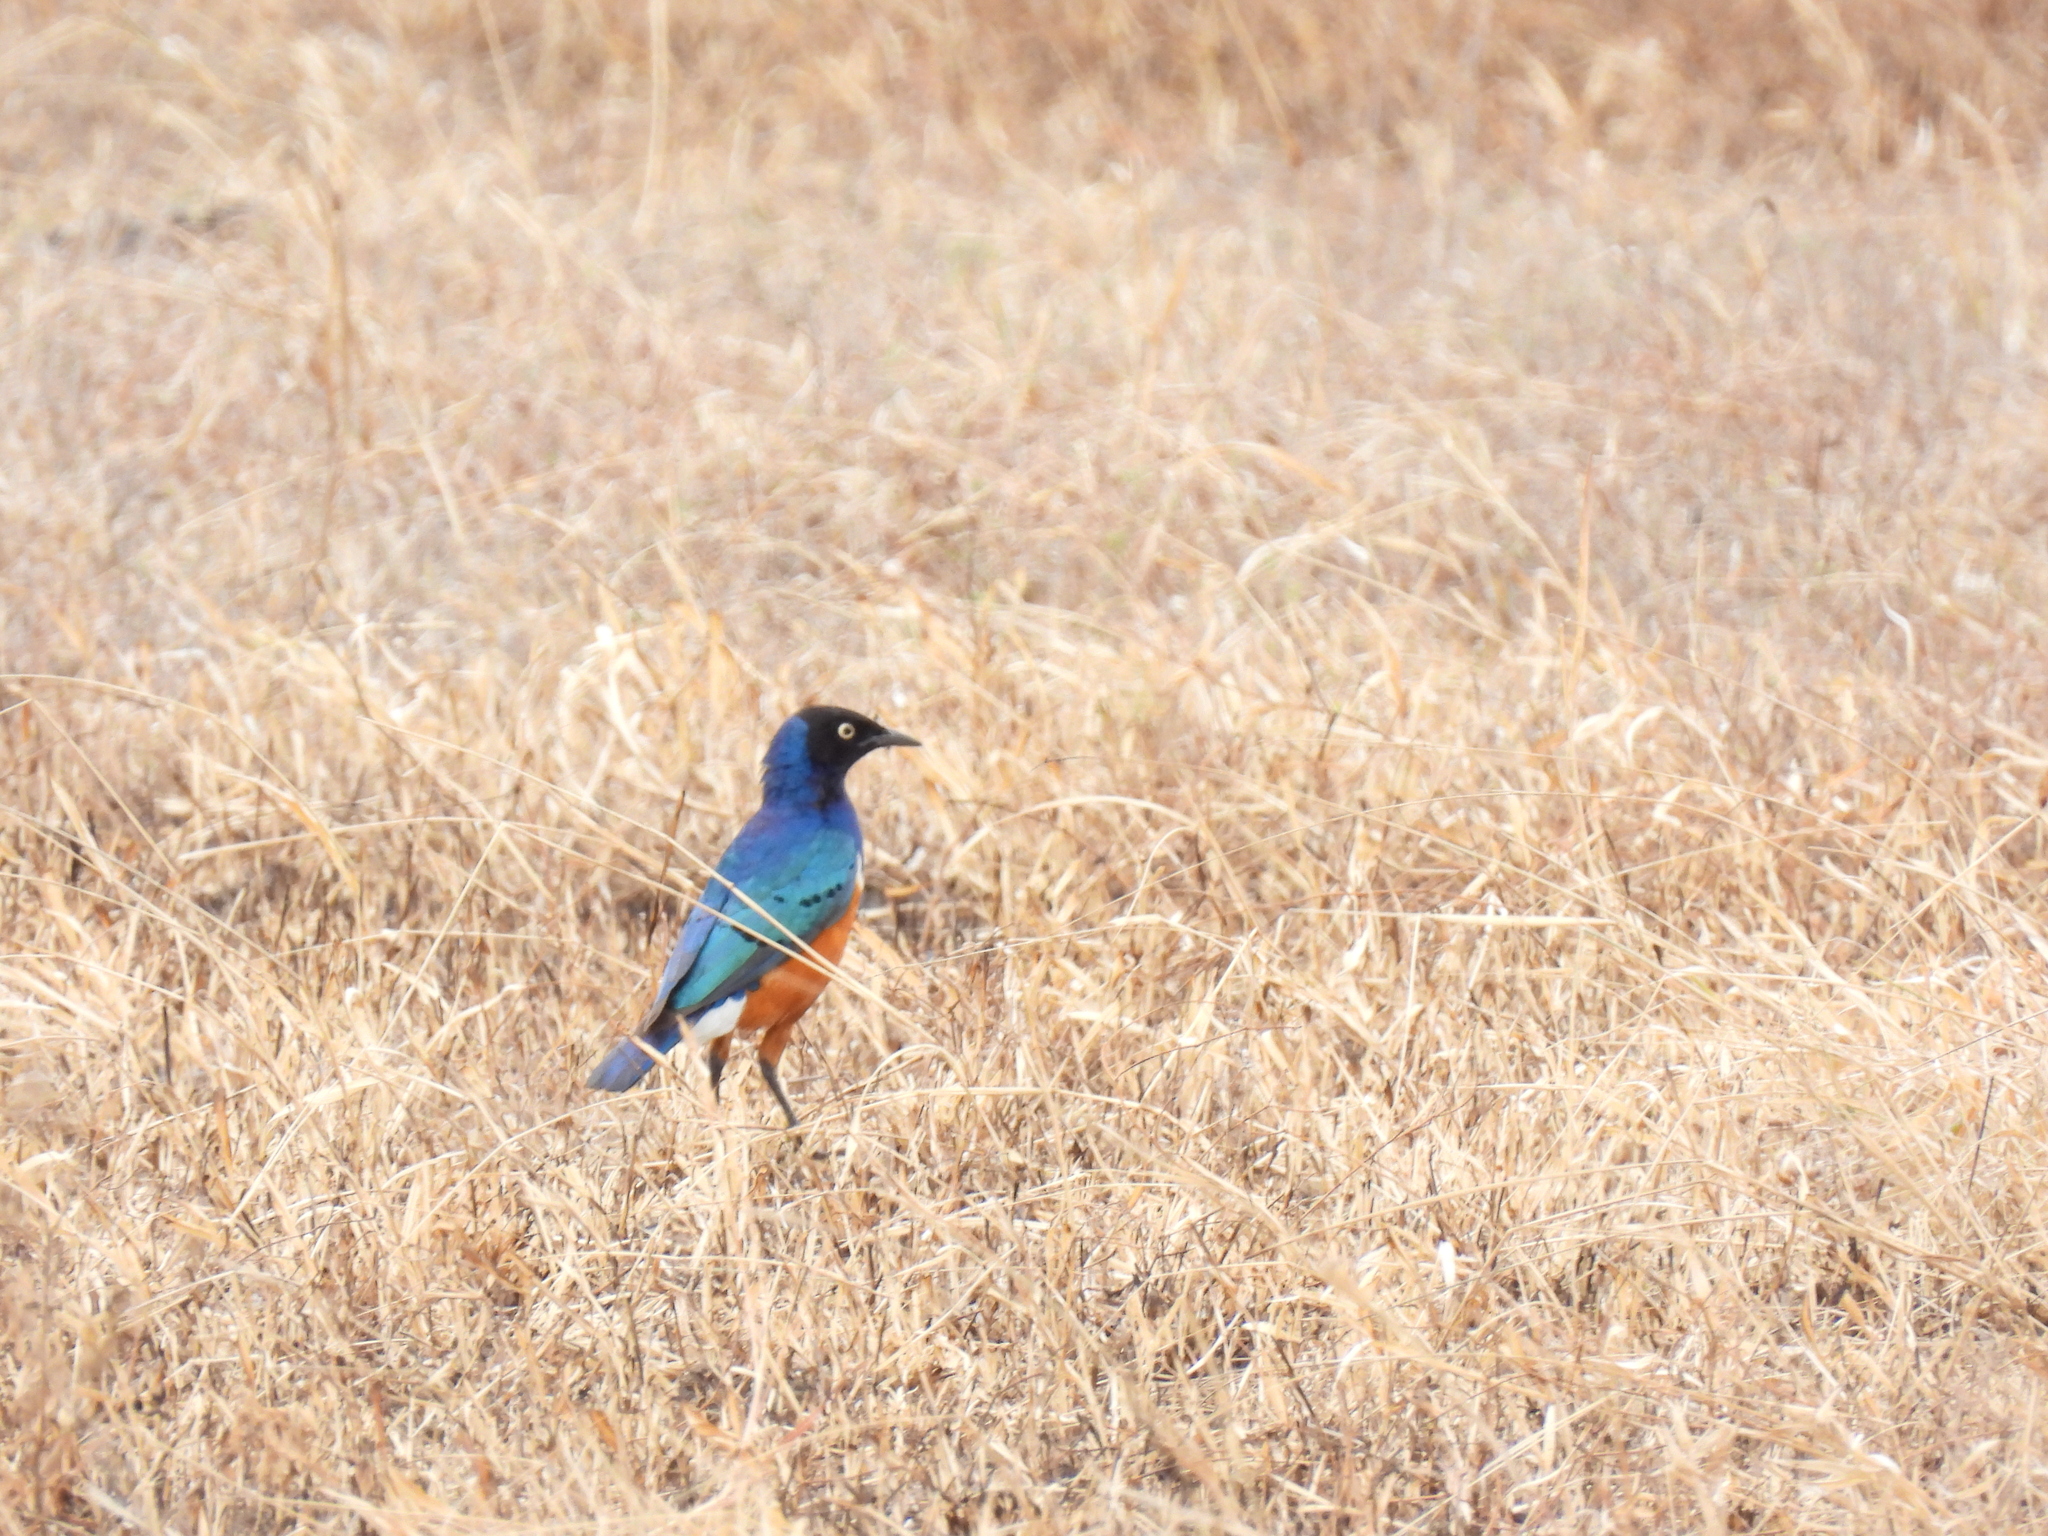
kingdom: Animalia
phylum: Chordata
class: Aves
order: Passeriformes
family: Sturnidae
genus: Lamprotornis
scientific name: Lamprotornis superbus
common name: Superb starling
